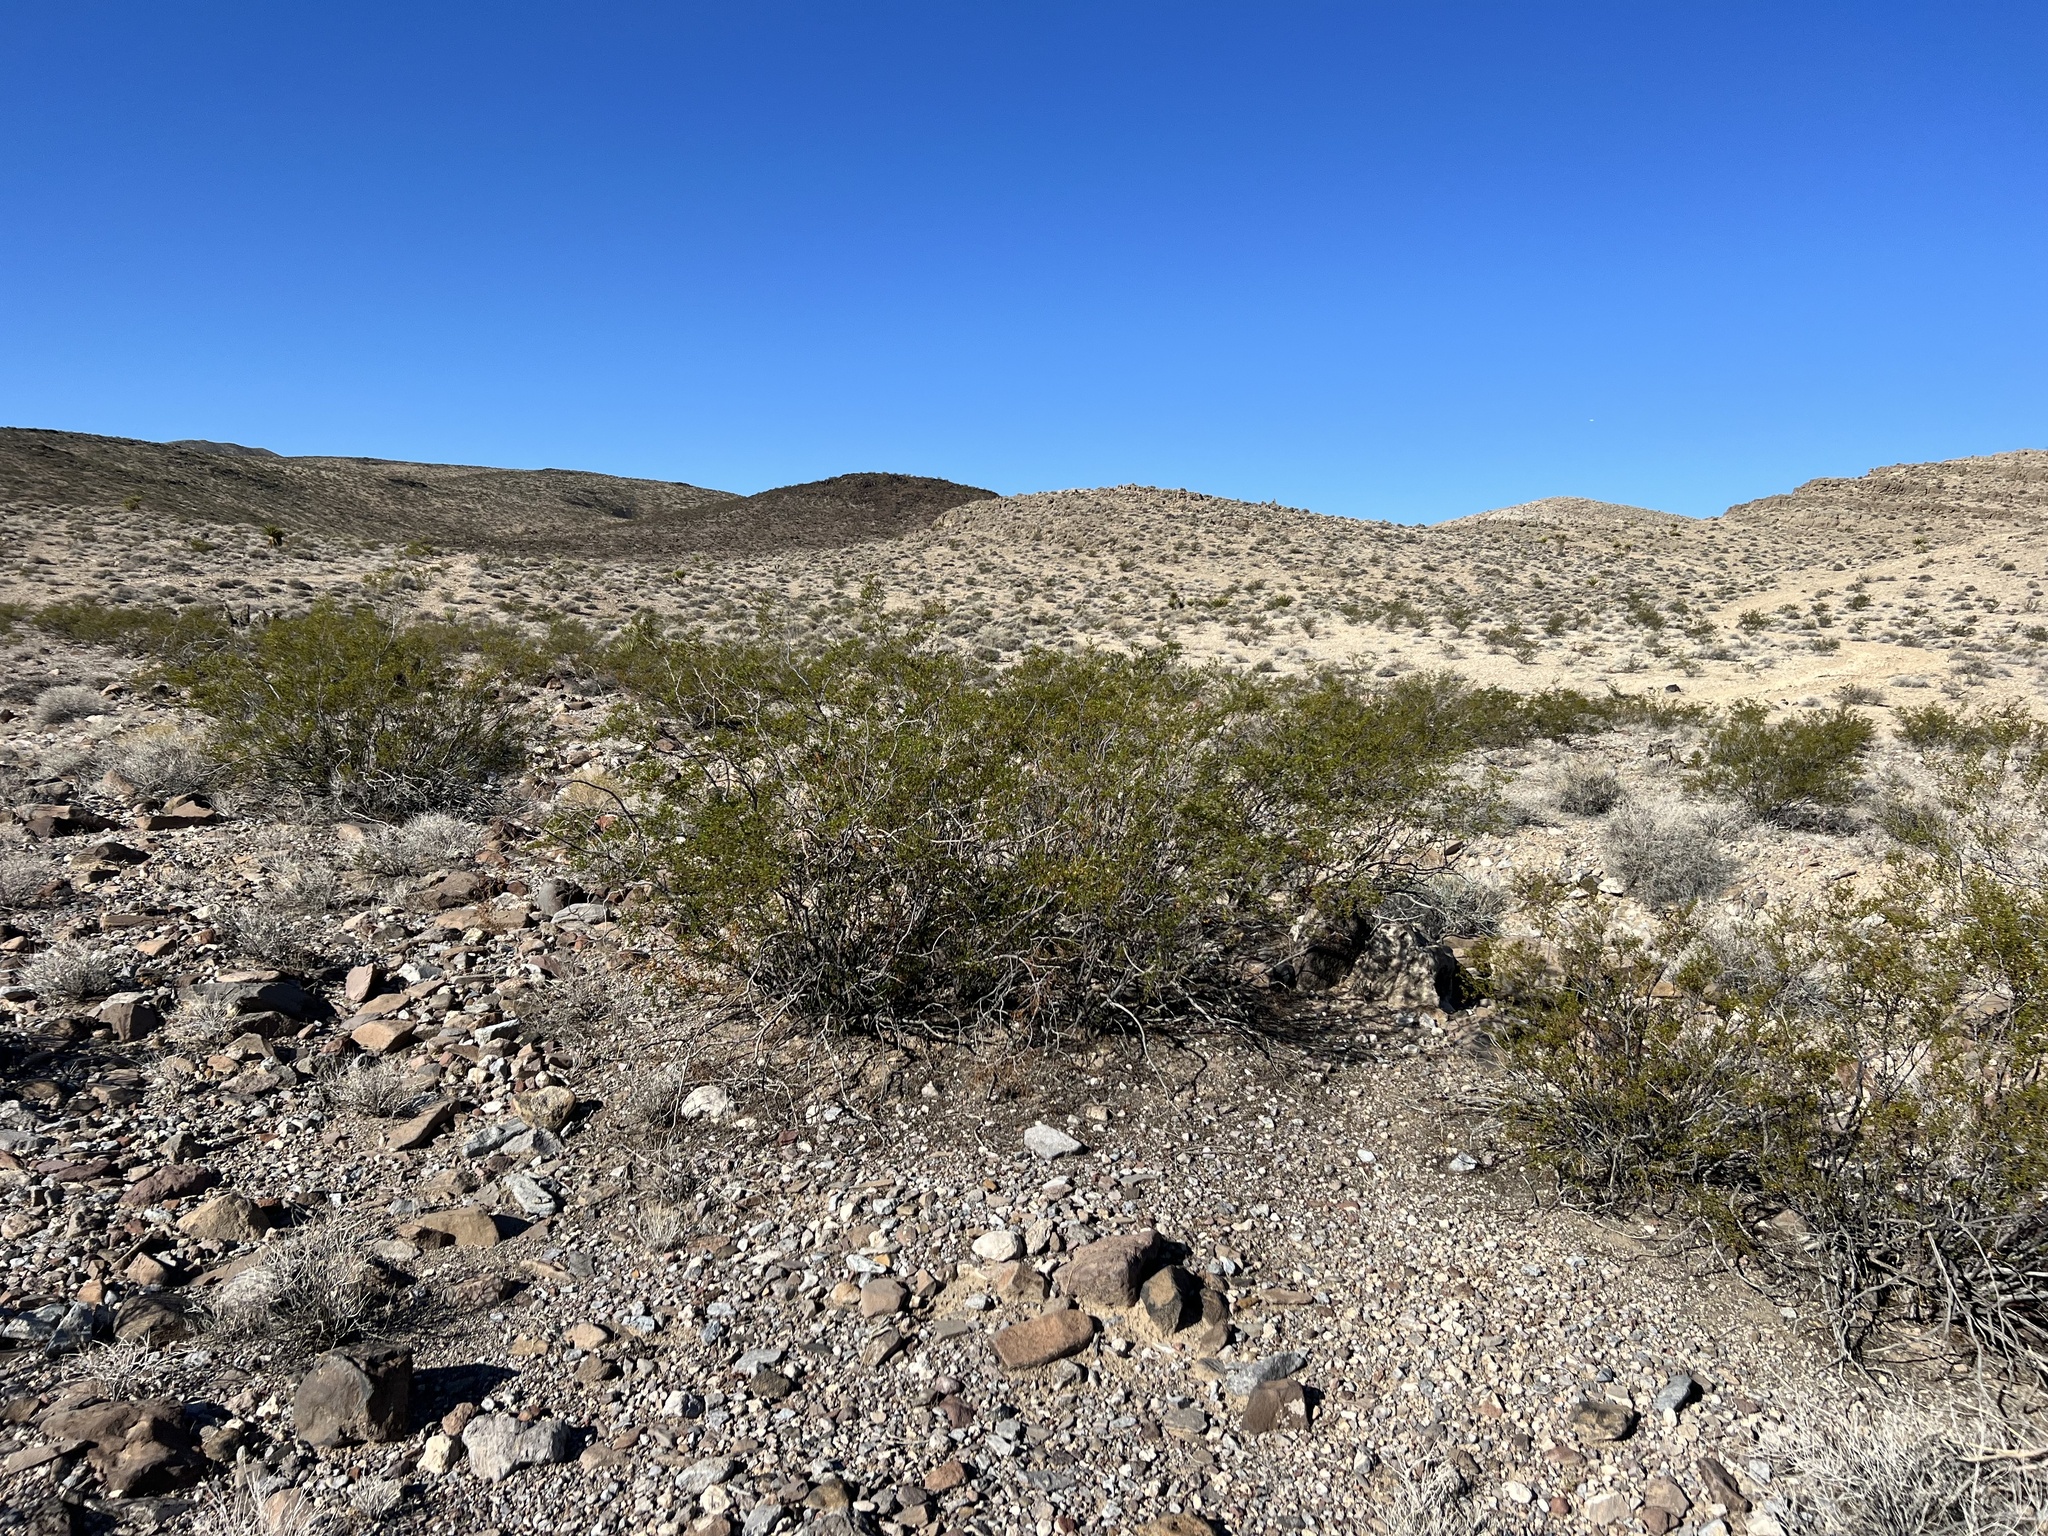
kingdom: Plantae
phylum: Tracheophyta
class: Magnoliopsida
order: Zygophyllales
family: Zygophyllaceae
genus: Larrea
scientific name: Larrea tridentata
